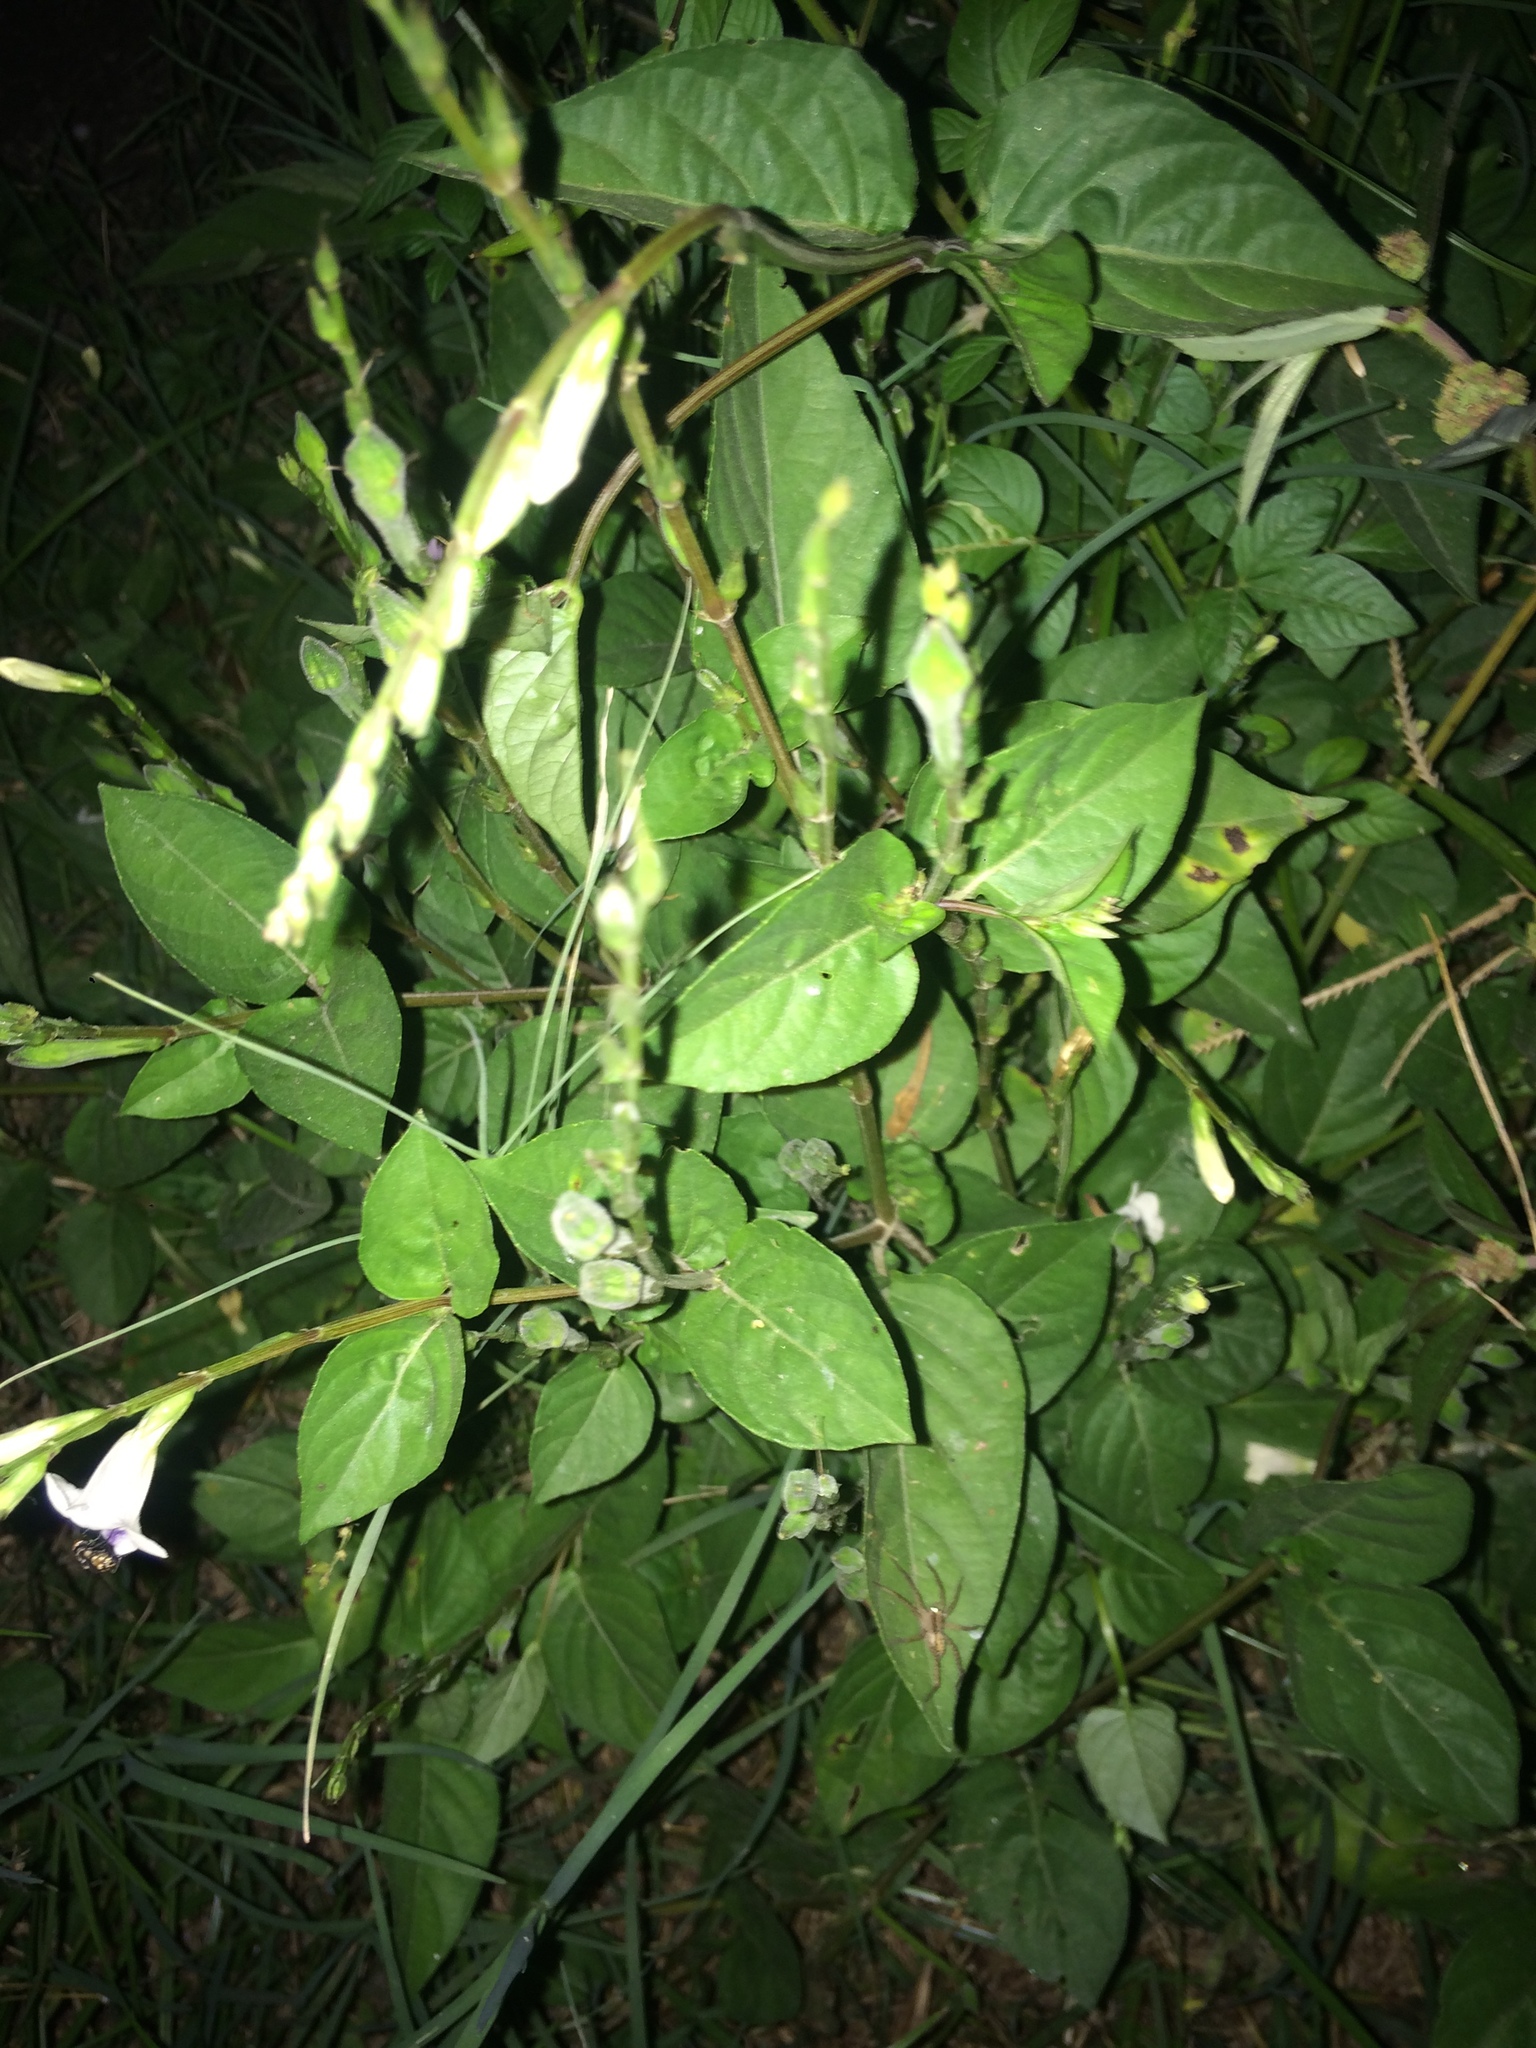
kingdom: Plantae
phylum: Tracheophyta
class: Magnoliopsida
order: Lamiales
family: Acanthaceae
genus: Asystasia
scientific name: Asystasia intrusa
